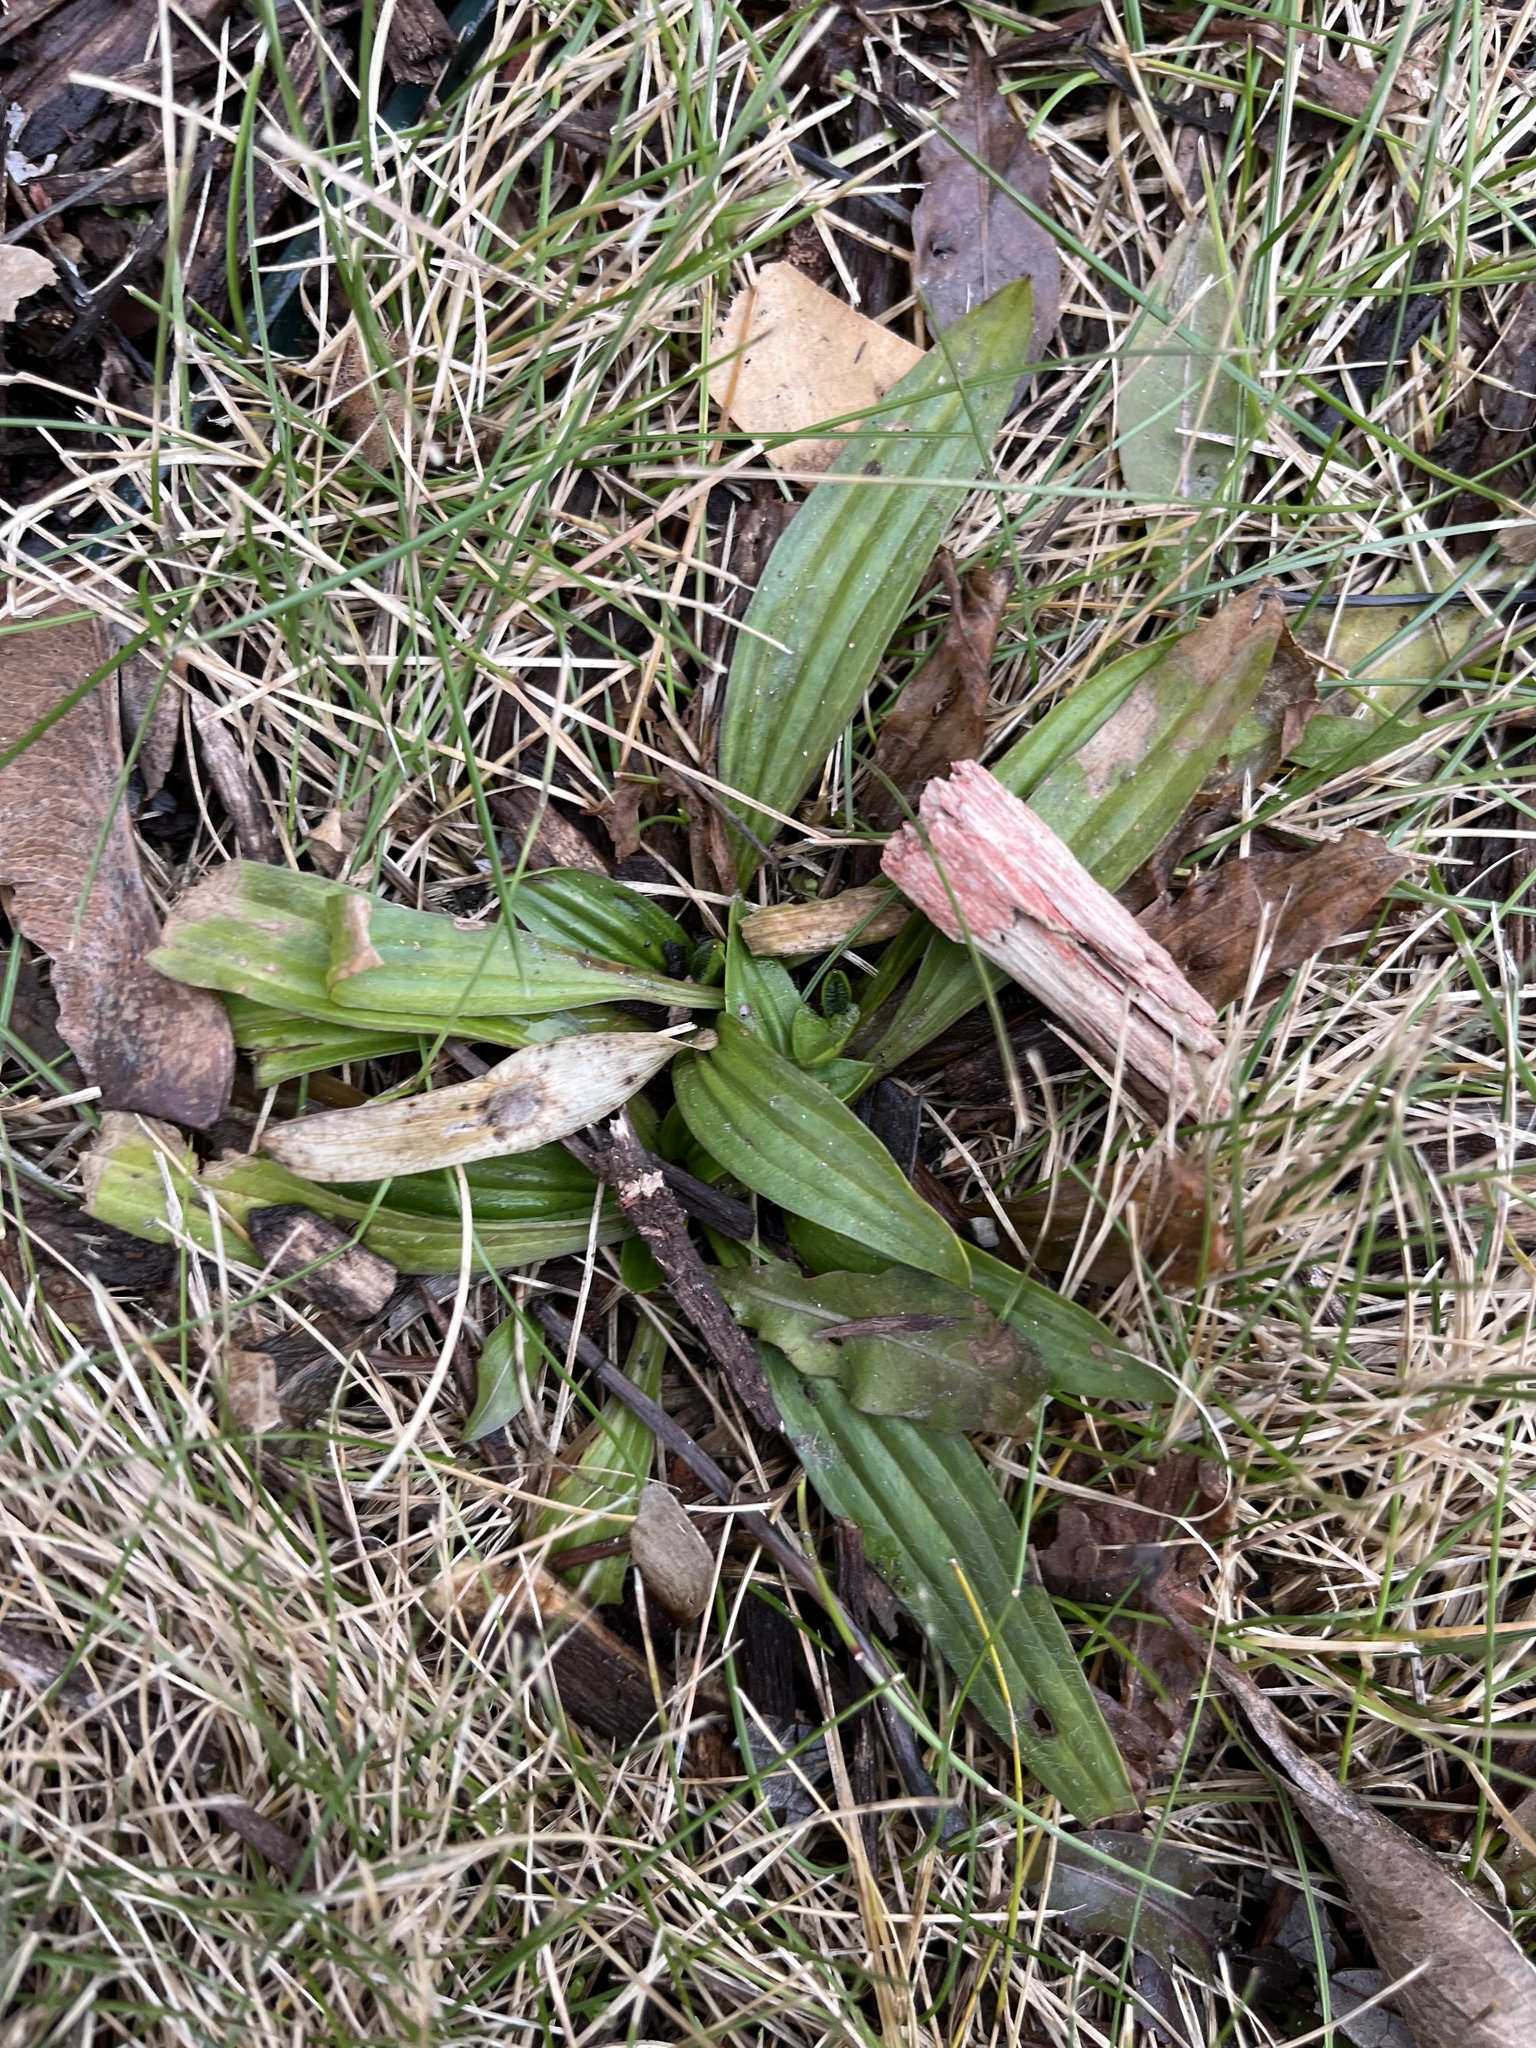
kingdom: Plantae
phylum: Tracheophyta
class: Magnoliopsida
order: Lamiales
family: Plantaginaceae
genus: Plantago
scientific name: Plantago lanceolata
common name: Ribwort plantain
